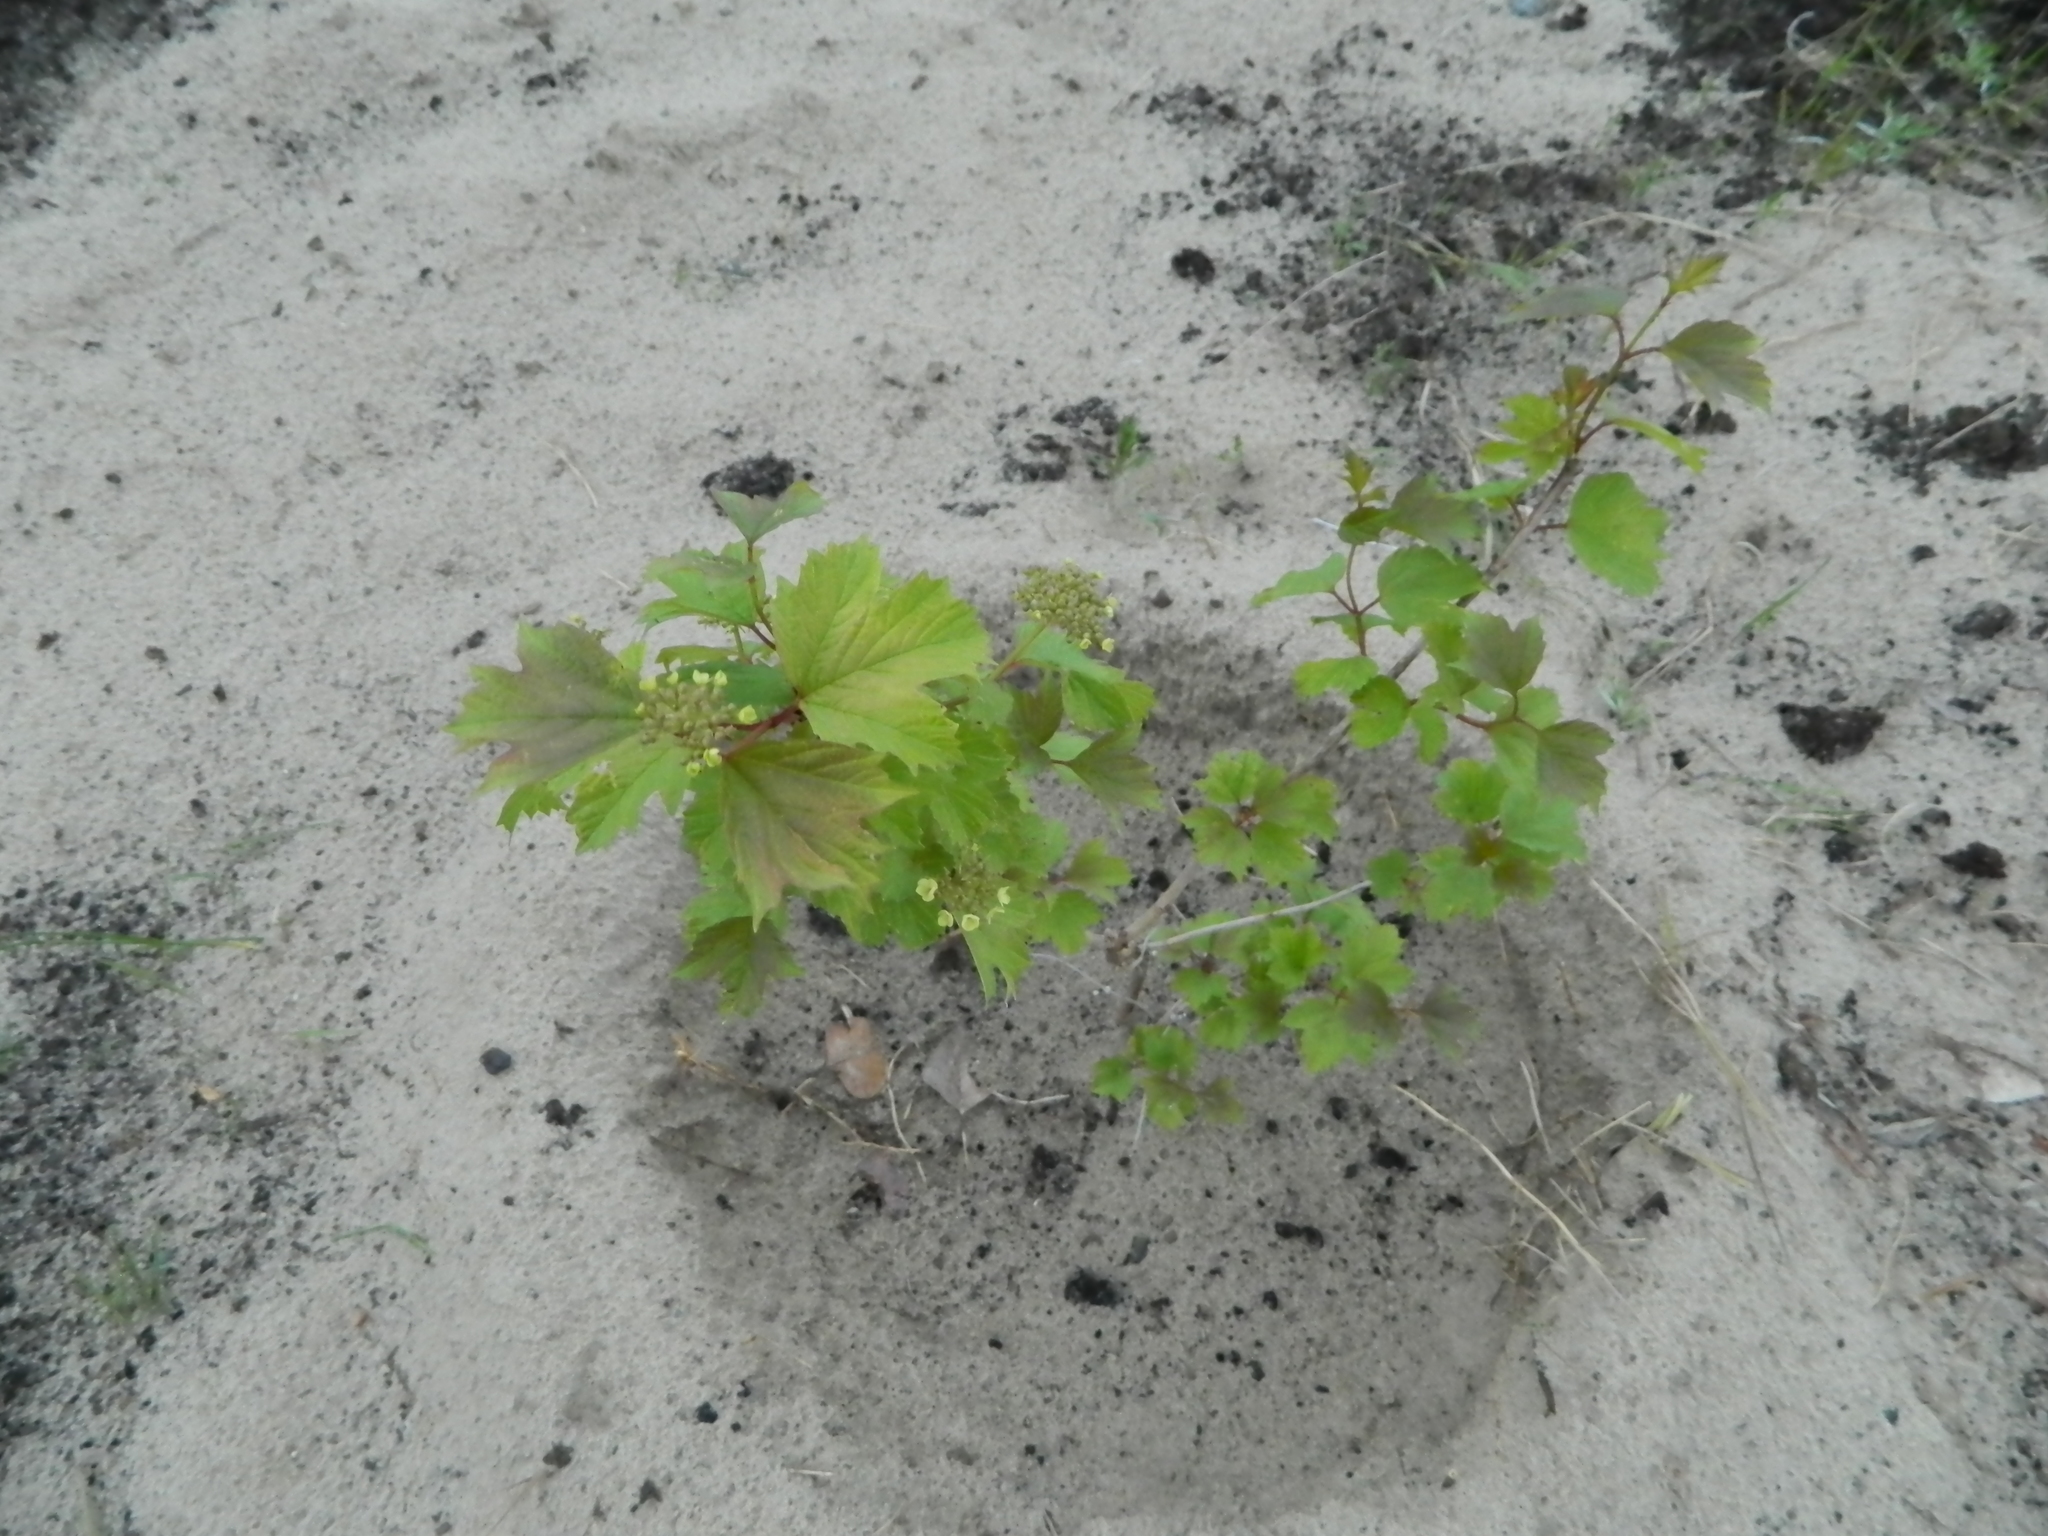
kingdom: Plantae
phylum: Tracheophyta
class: Magnoliopsida
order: Dipsacales
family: Viburnaceae
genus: Viburnum
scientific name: Viburnum opulus
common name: Guelder-rose
